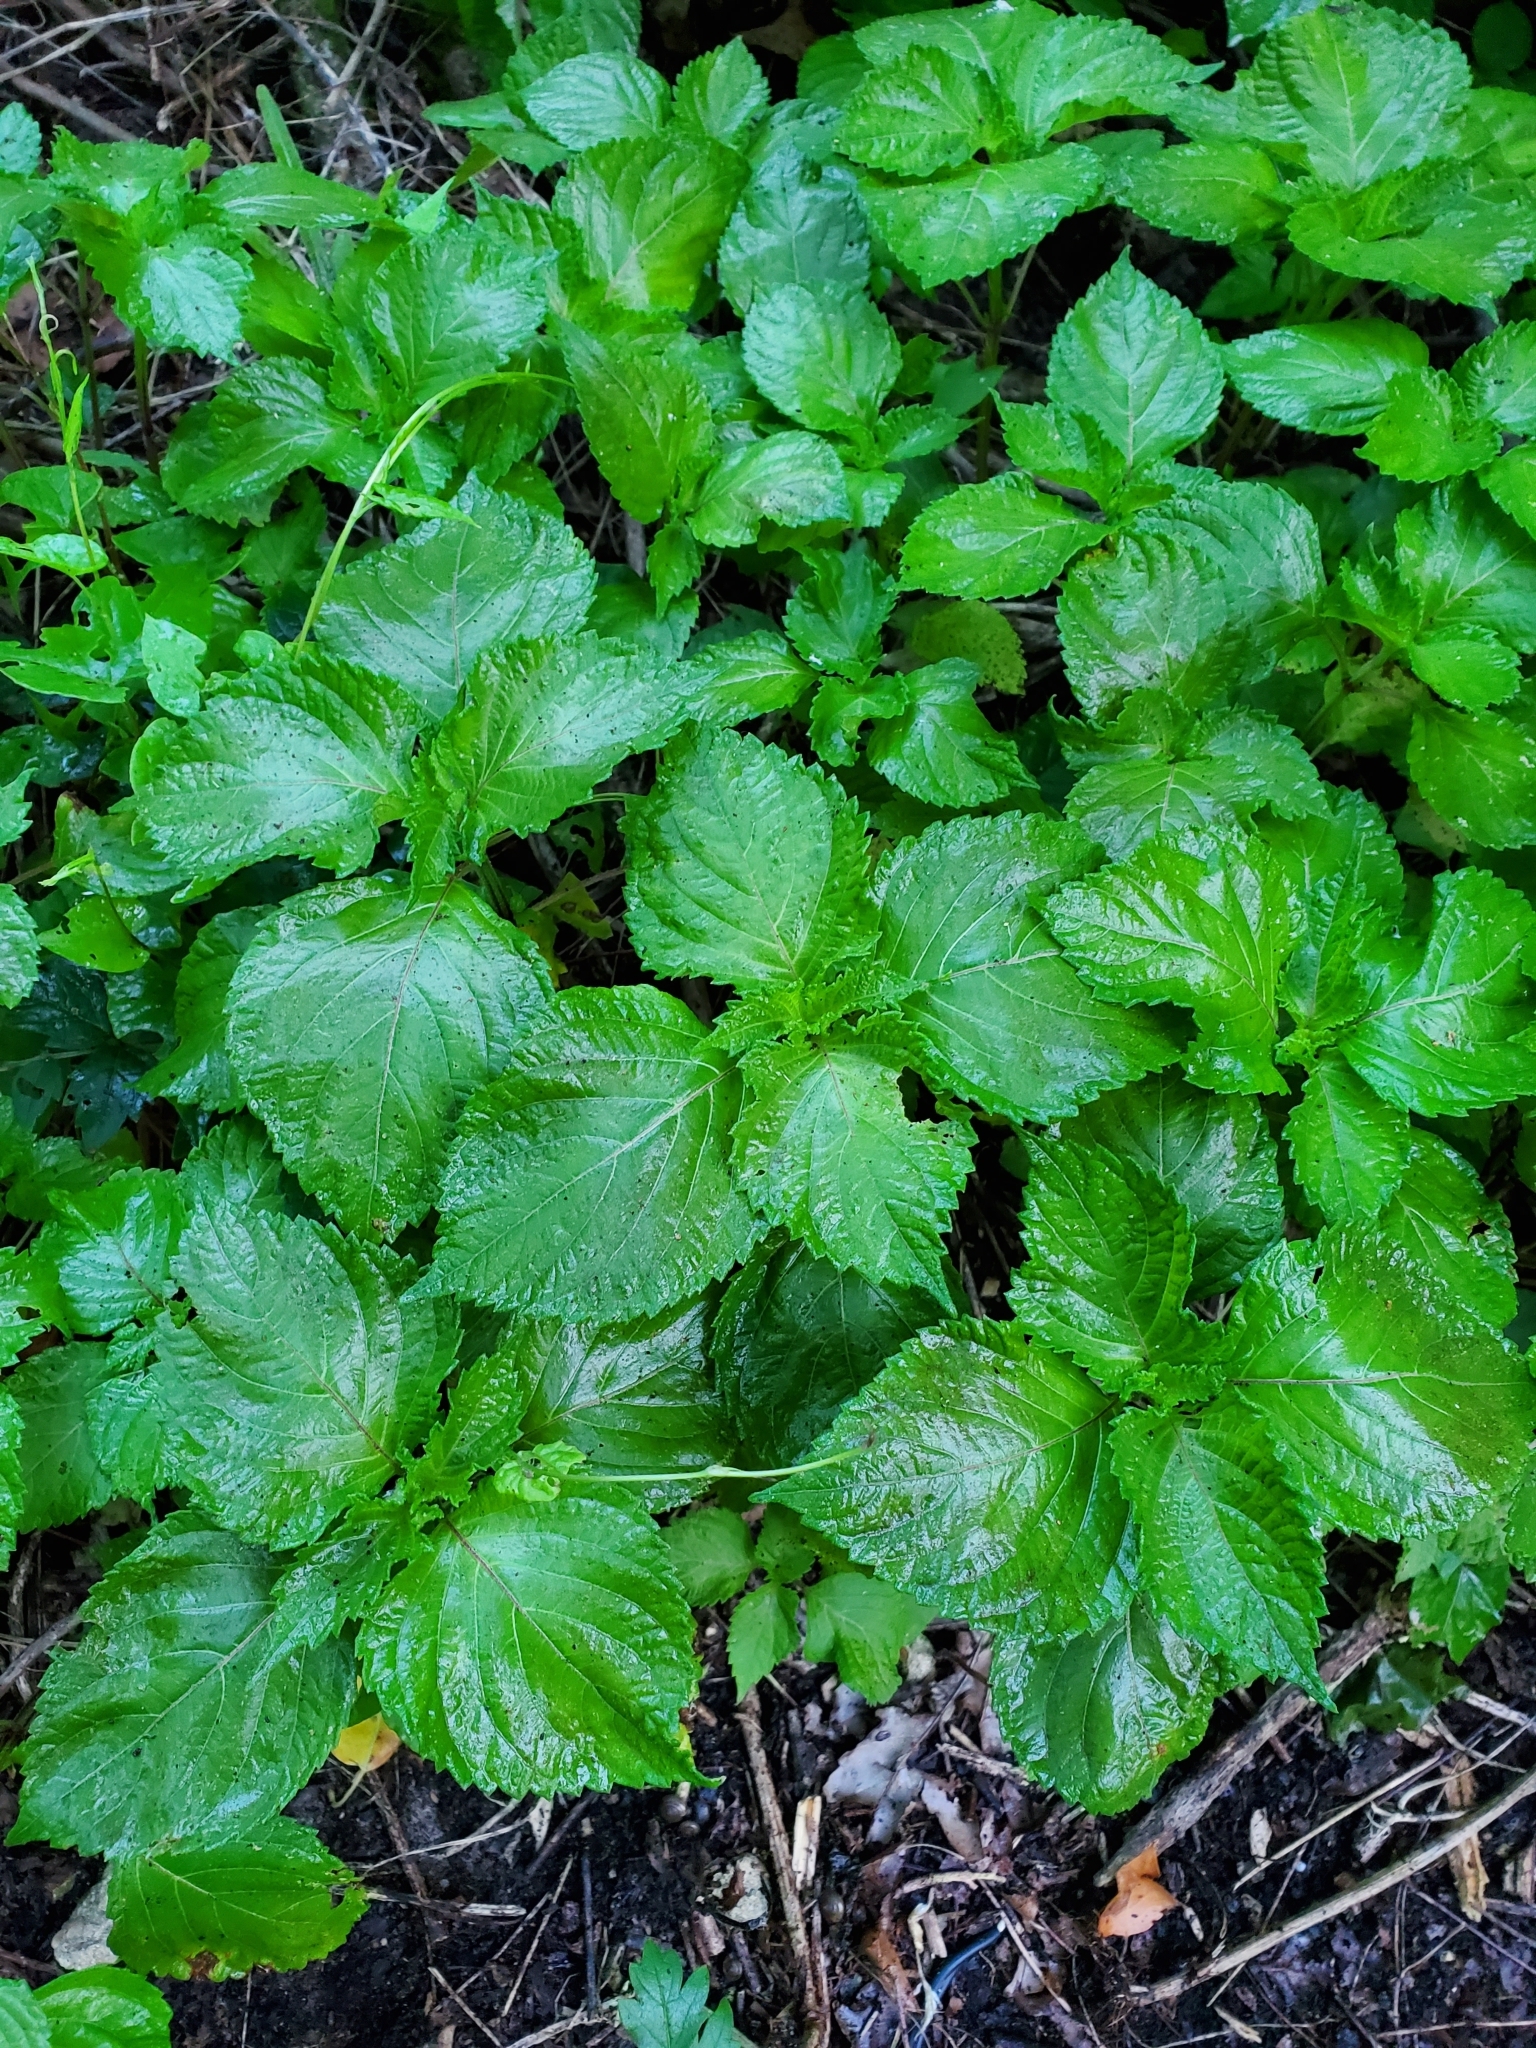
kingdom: Plantae
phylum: Tracheophyta
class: Magnoliopsida
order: Lamiales
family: Lamiaceae
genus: Perilla
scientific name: Perilla frutescens
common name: Perilla
